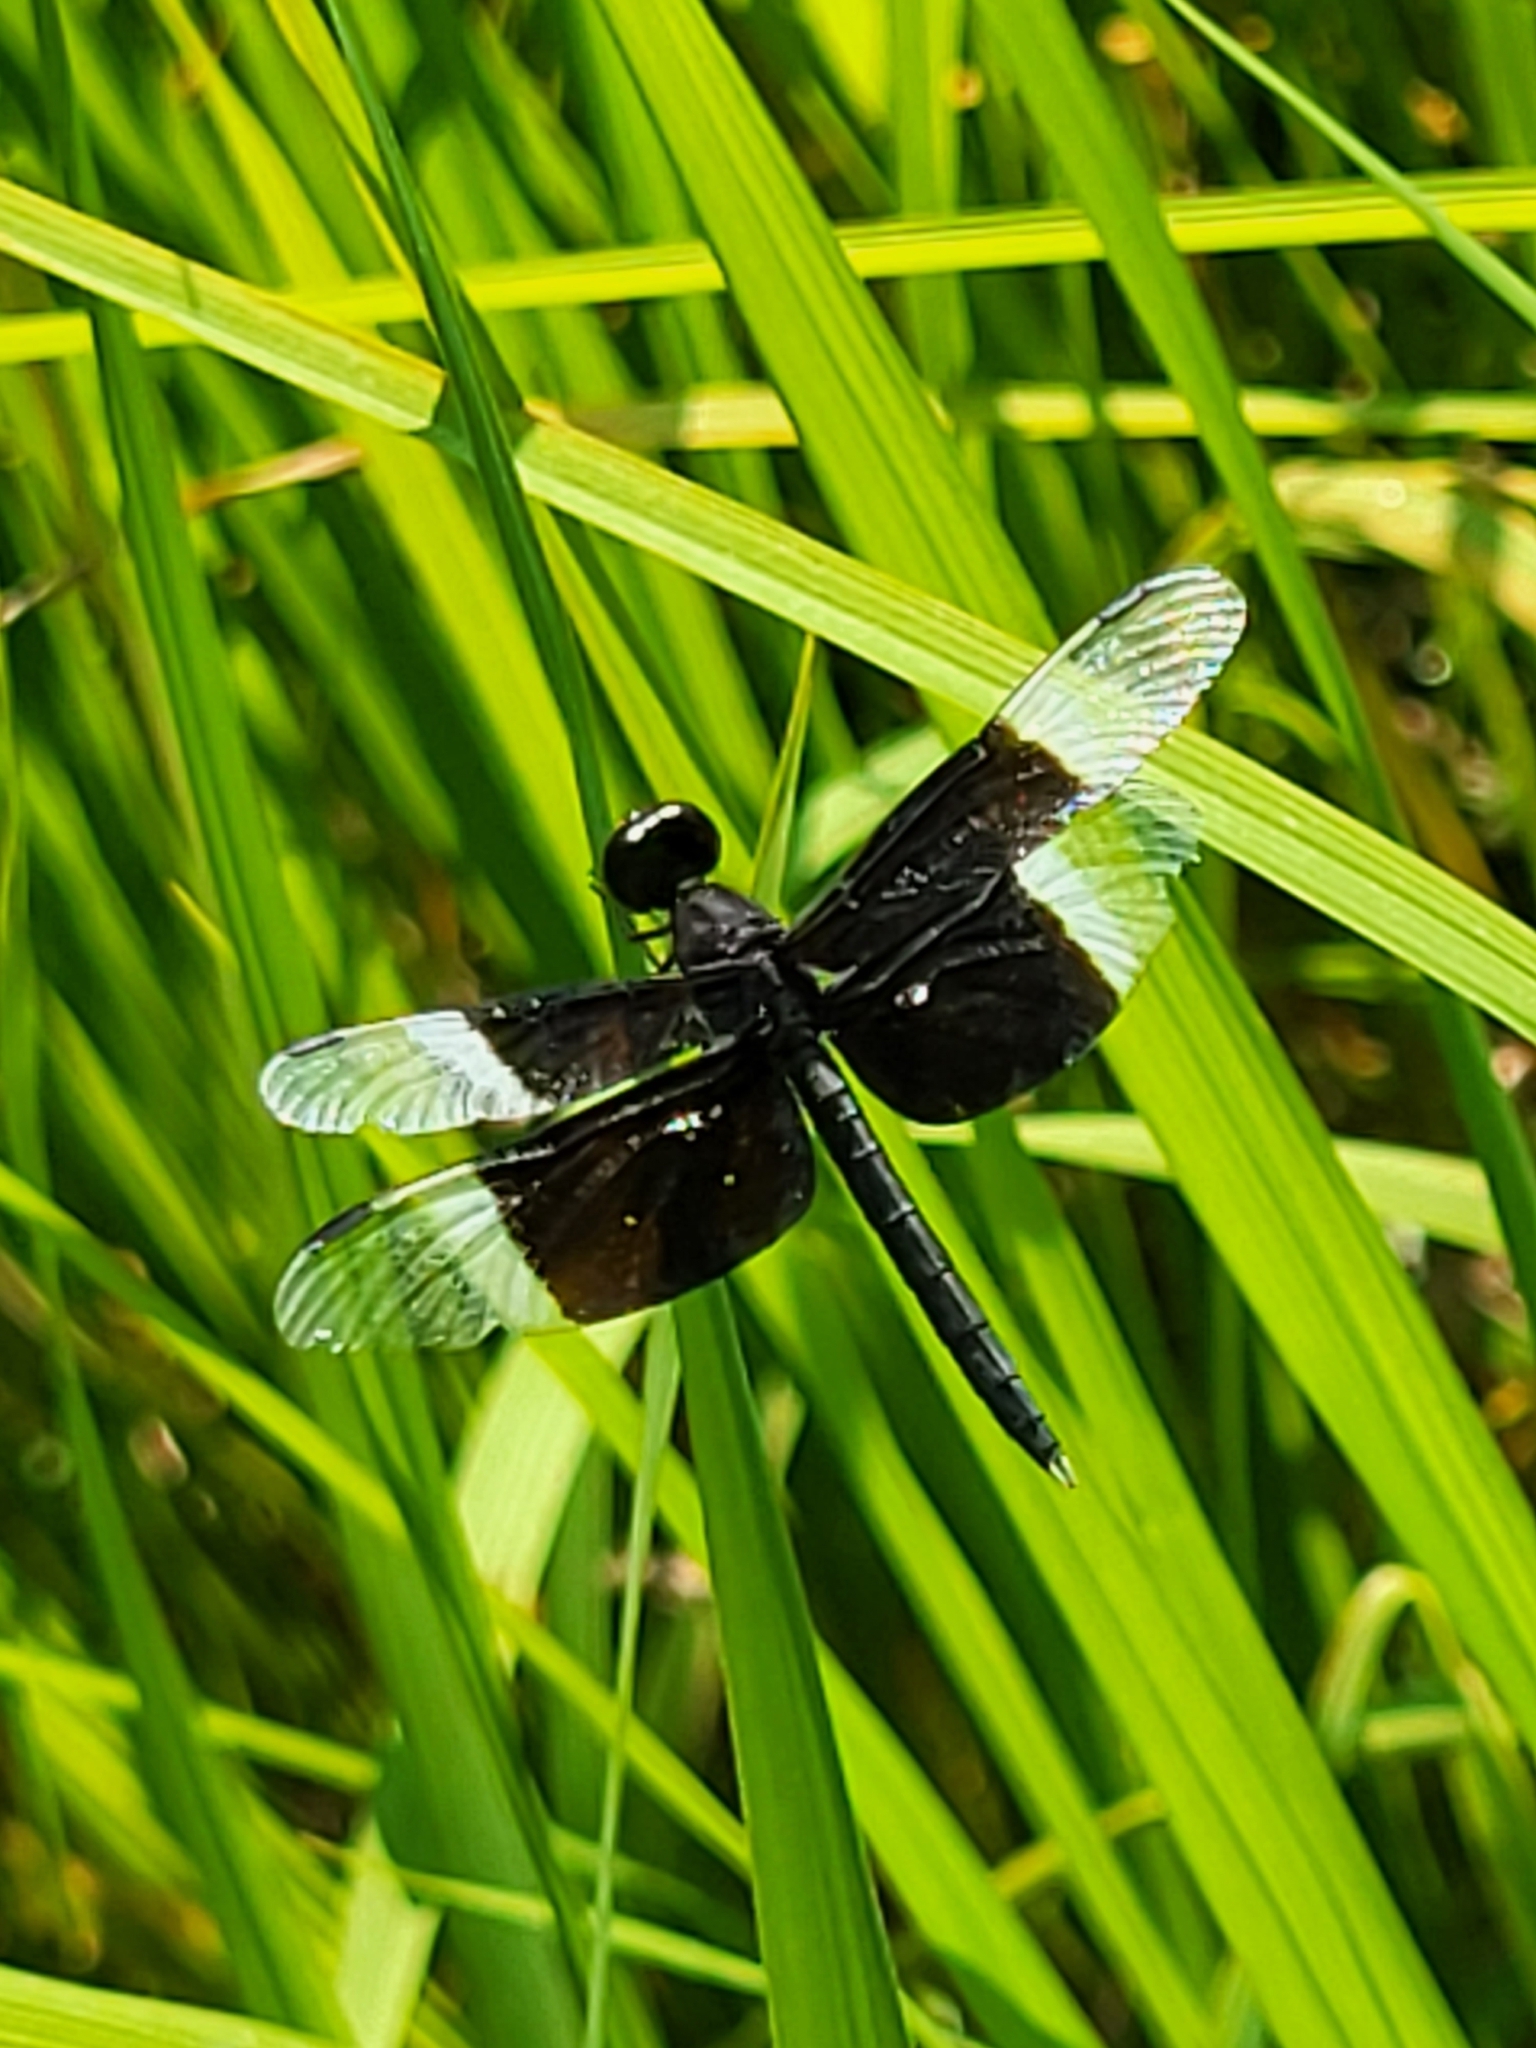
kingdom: Animalia
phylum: Arthropoda
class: Insecta
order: Odonata
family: Libellulidae
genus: Neurothemis
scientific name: Neurothemis tullia
